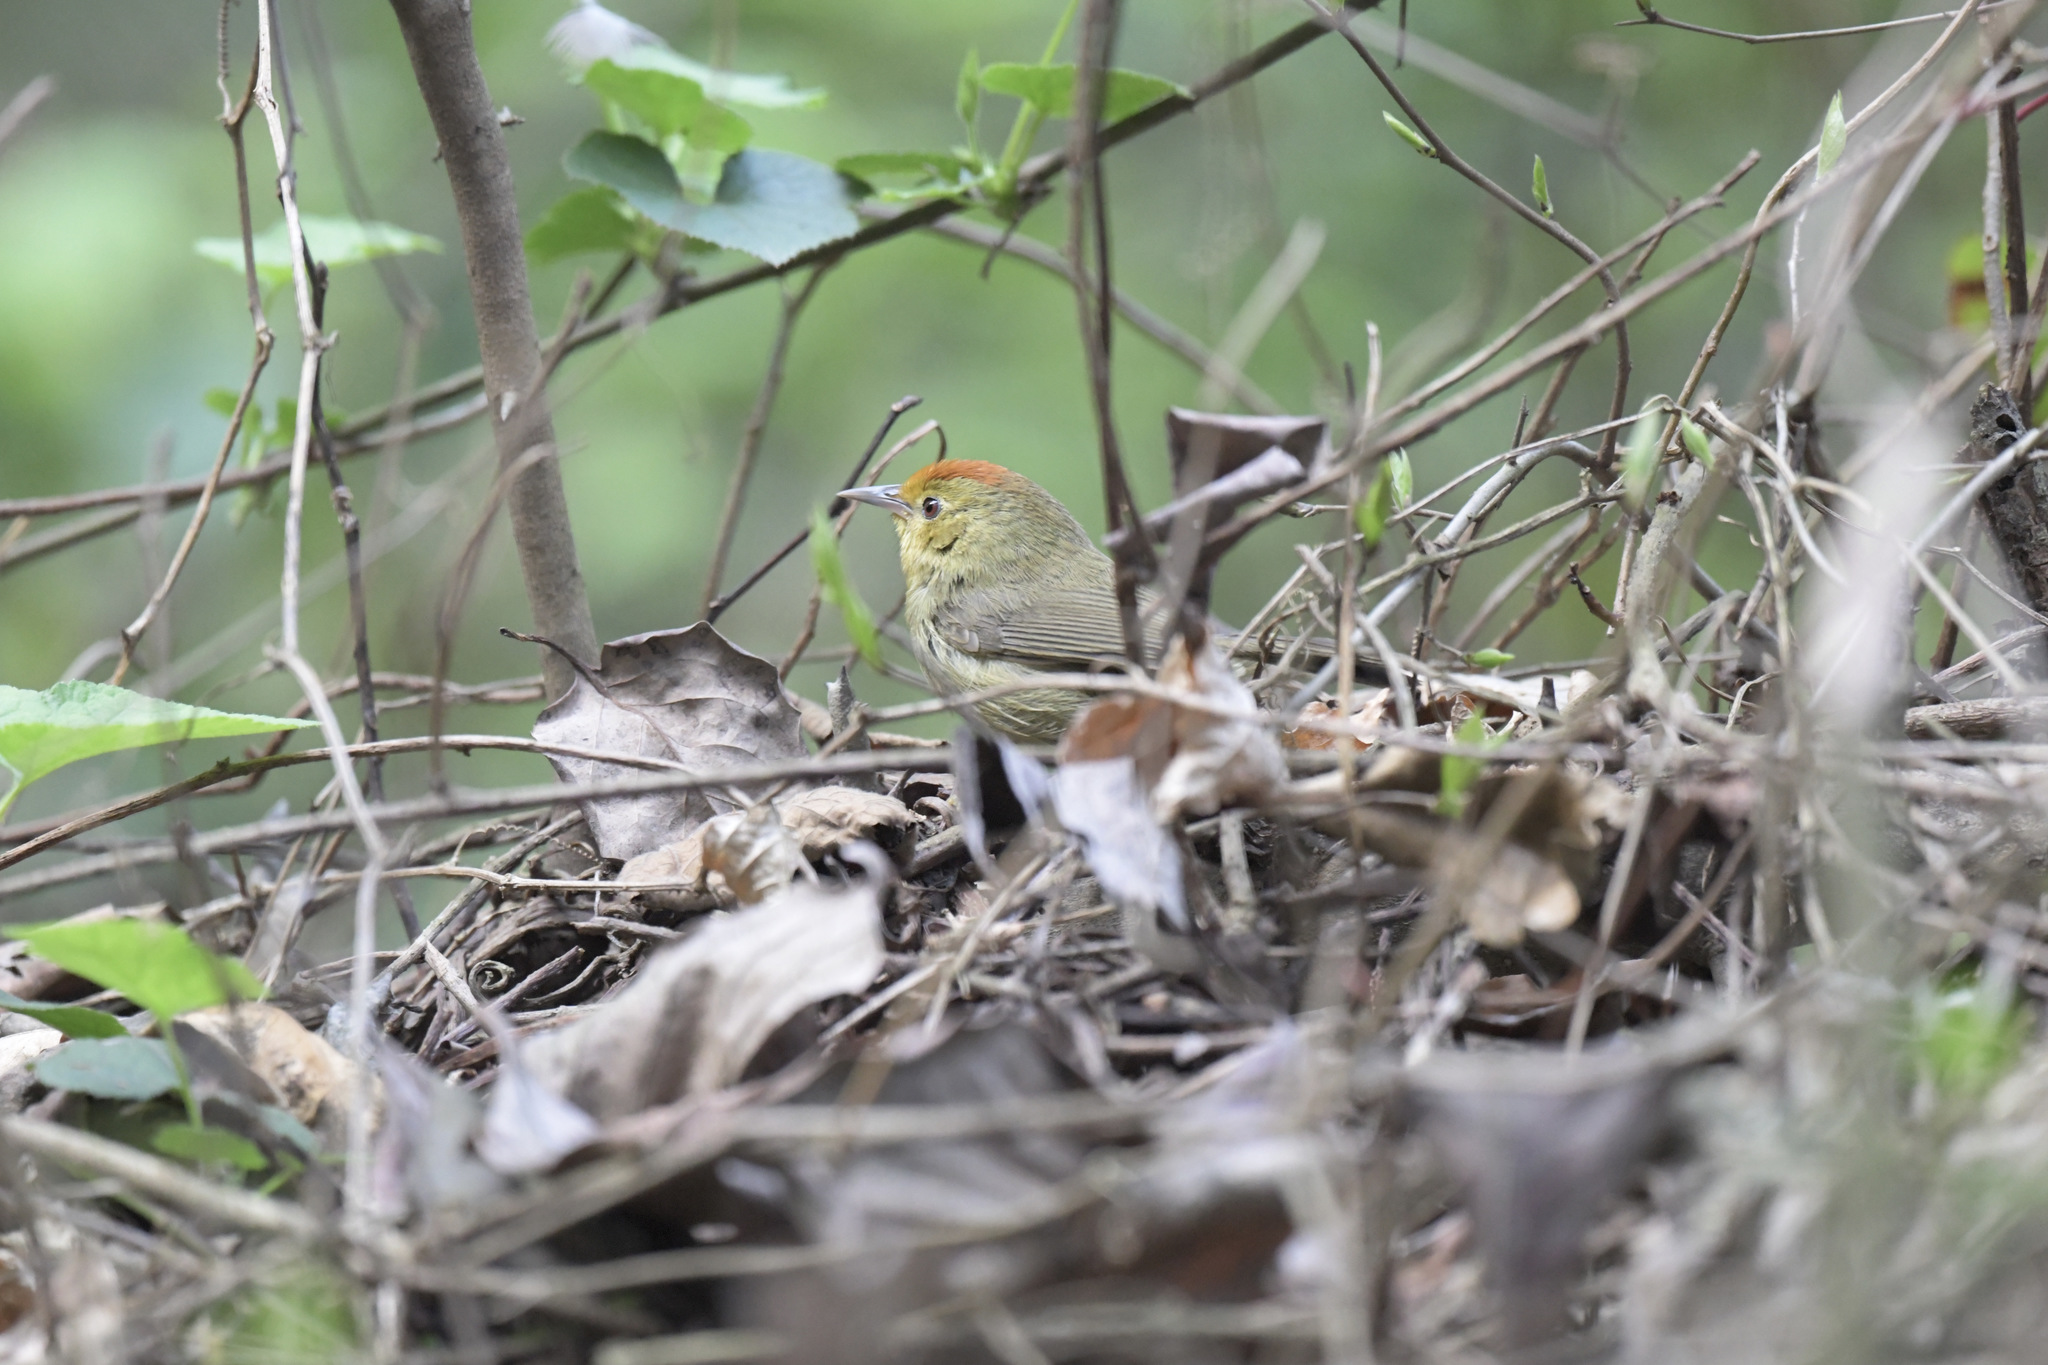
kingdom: Animalia
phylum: Chordata
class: Aves
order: Passeriformes
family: Timaliidae
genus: Stachyridopsis
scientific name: Stachyridopsis ruficeps
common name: Rufous-capped babbler
